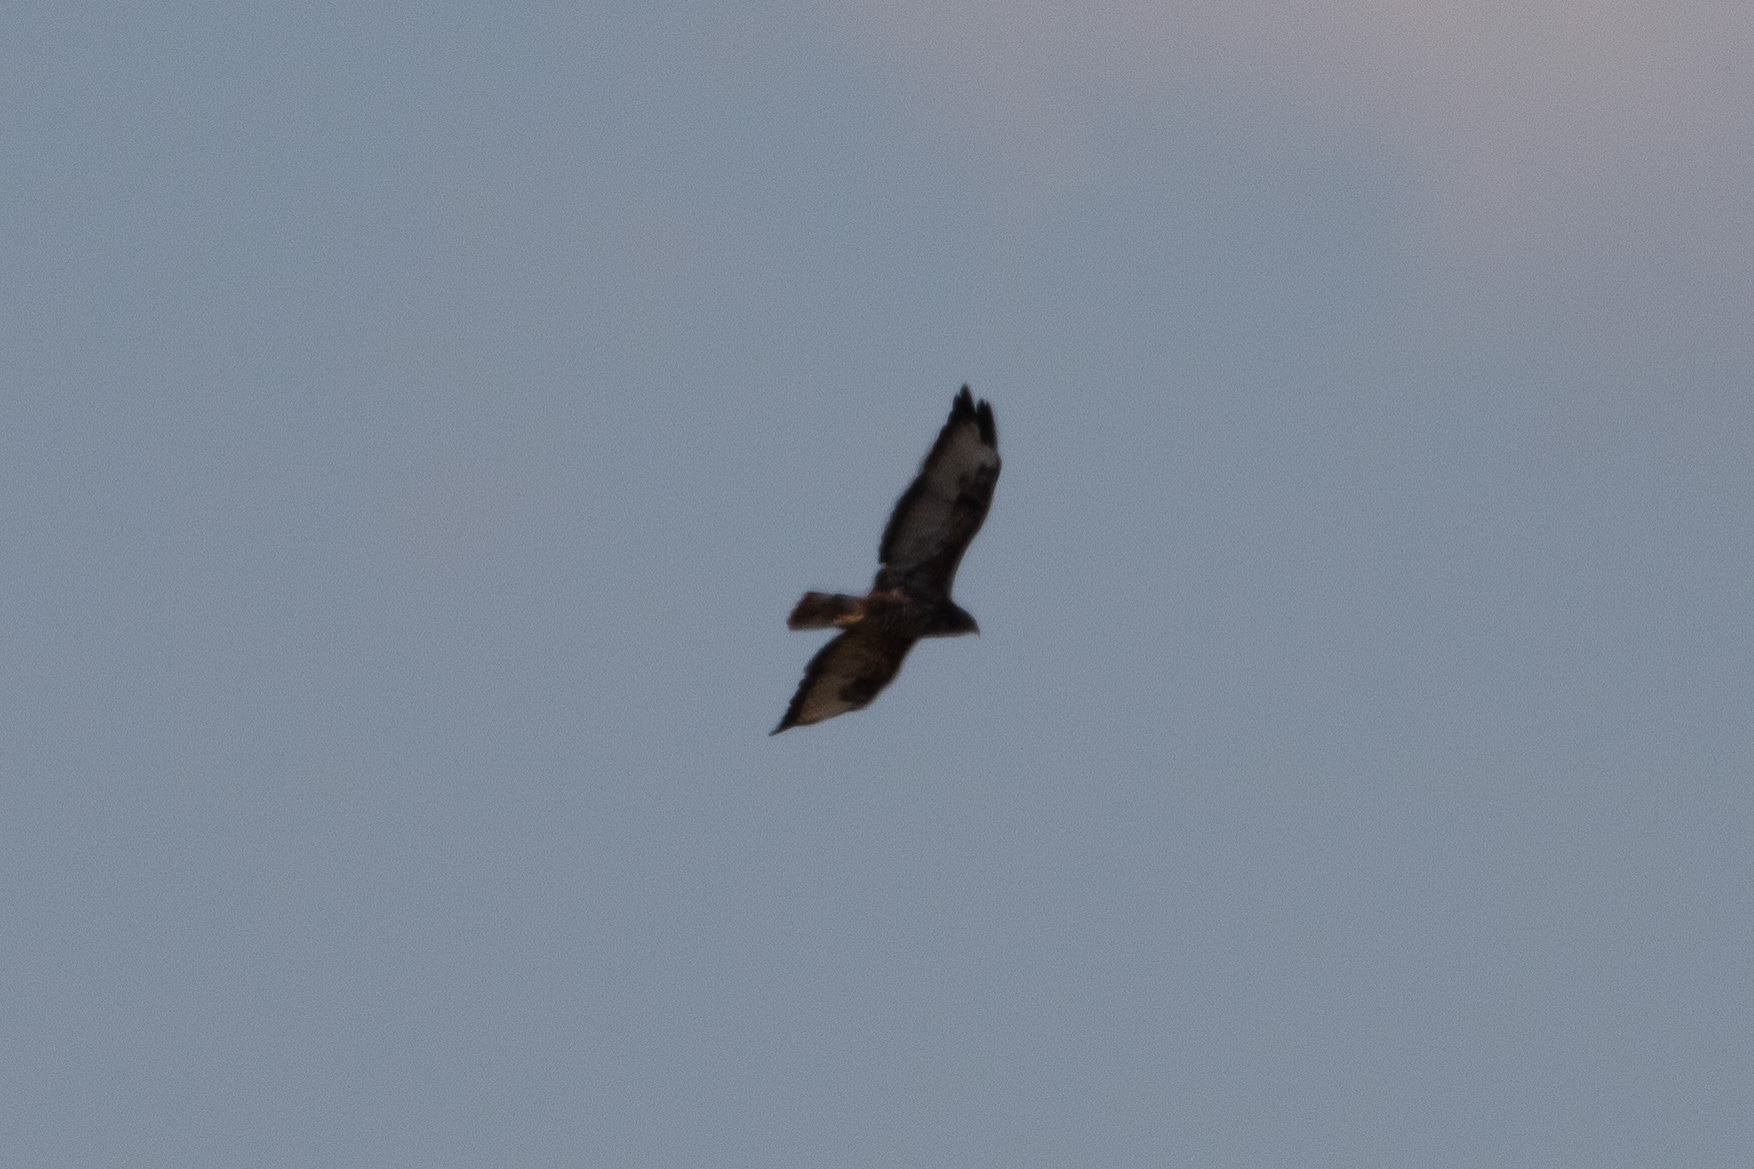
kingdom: Animalia
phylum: Chordata
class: Aves
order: Accipitriformes
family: Accipitridae
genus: Buteo
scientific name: Buteo buteo
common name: Common buzzard
